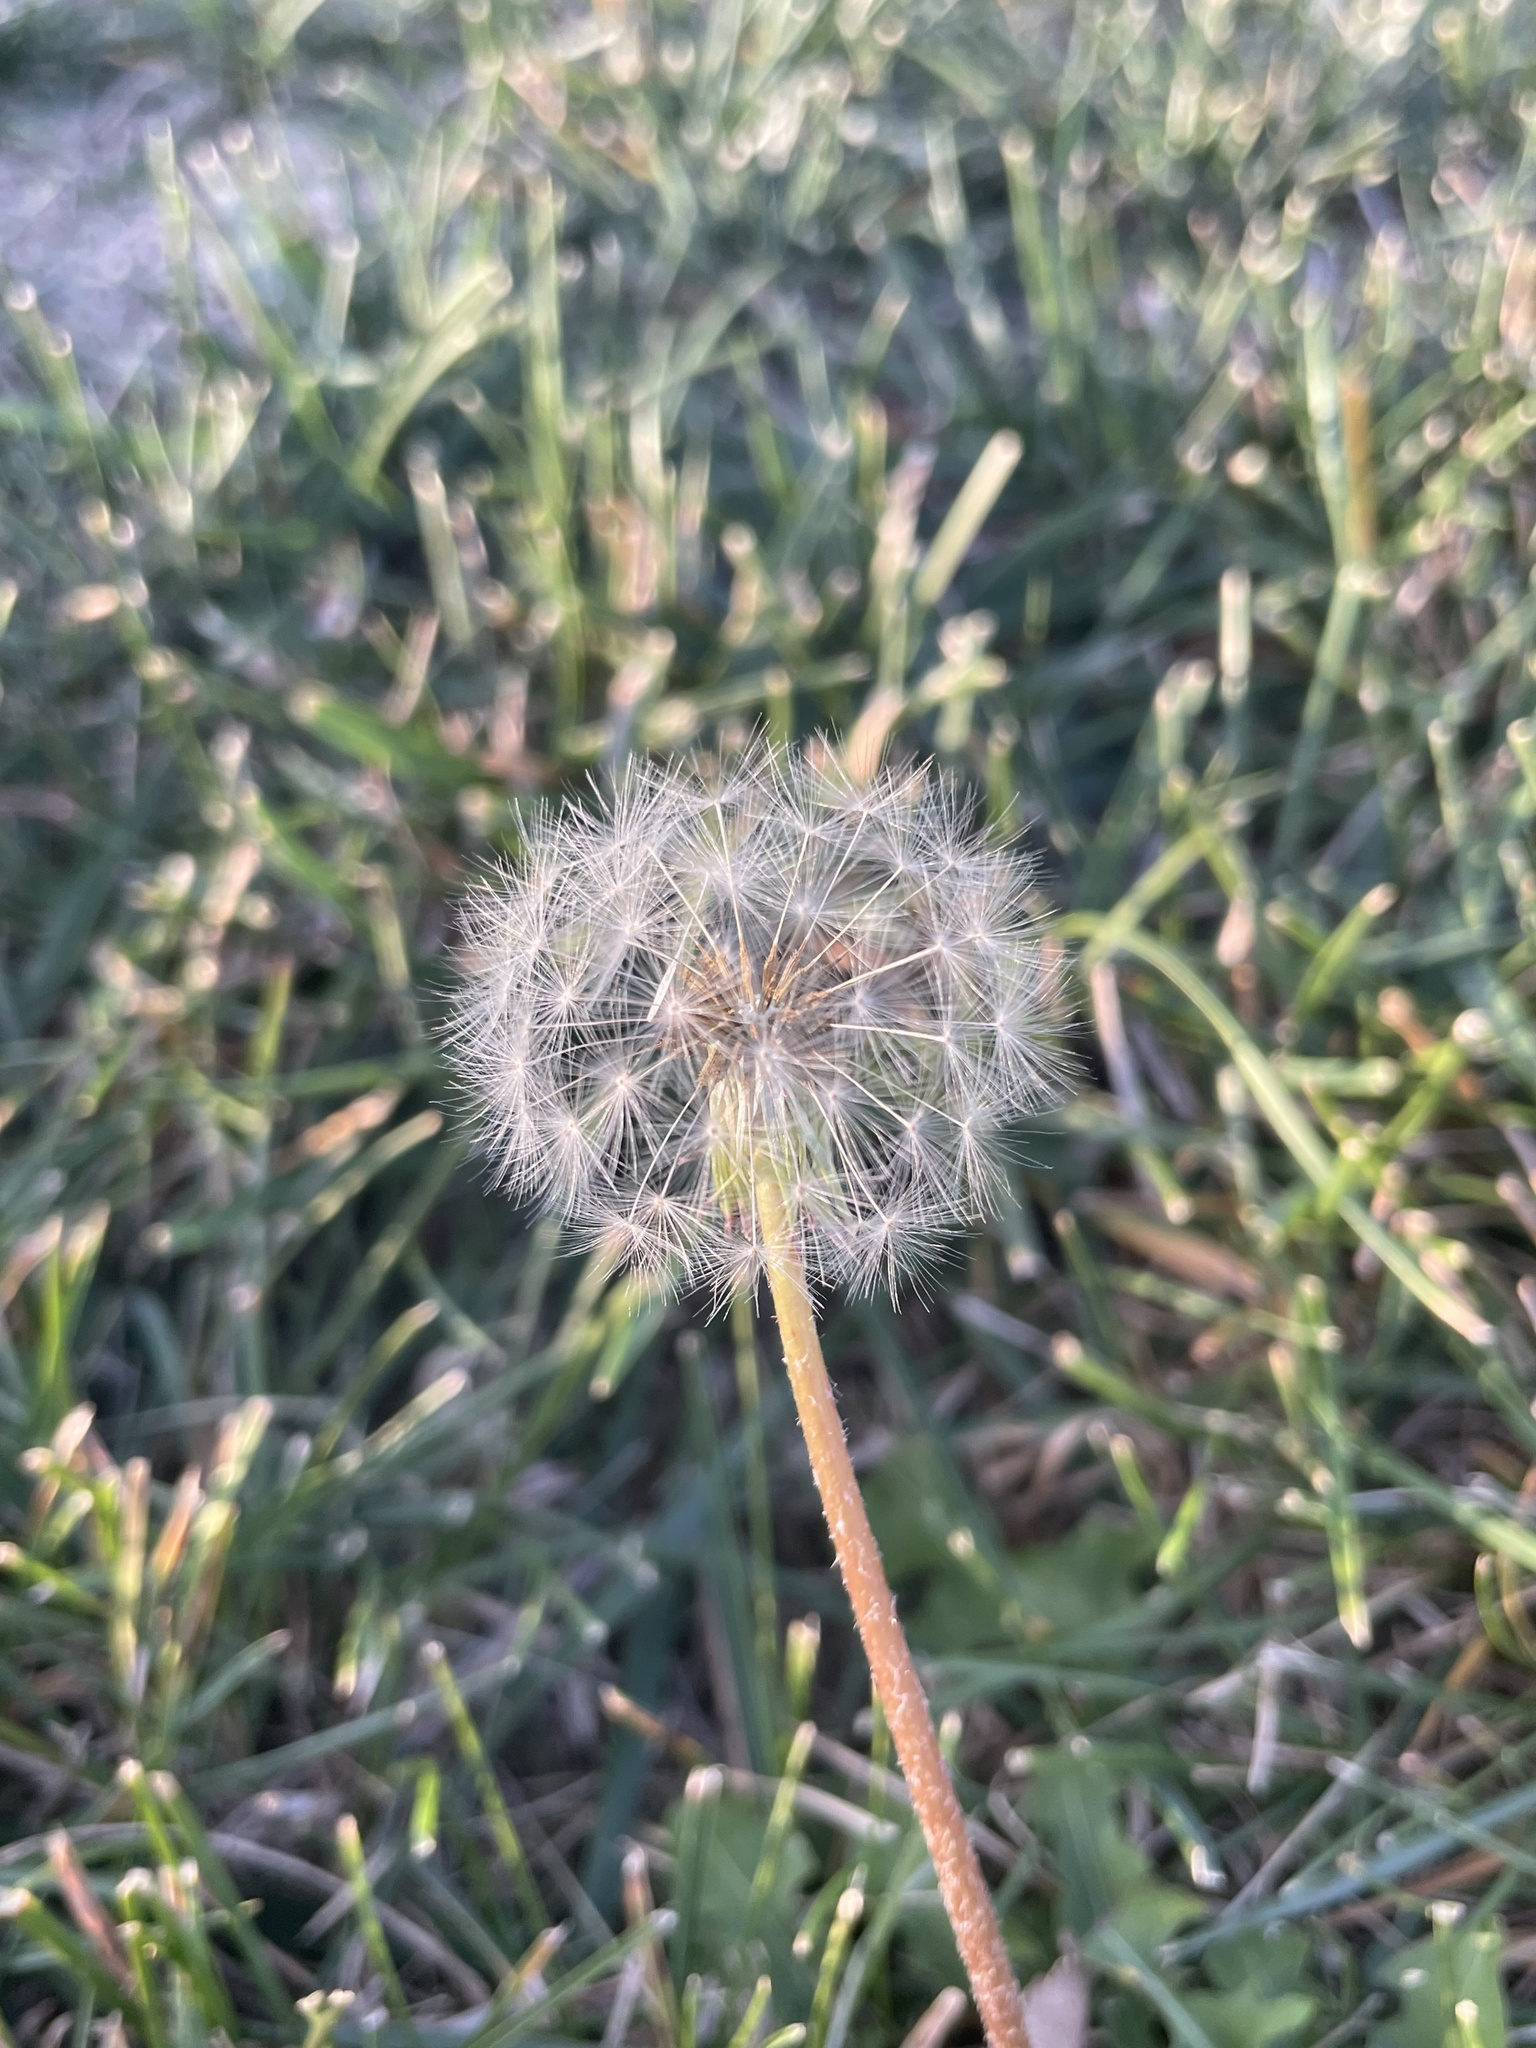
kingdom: Plantae
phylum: Tracheophyta
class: Magnoliopsida
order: Asterales
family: Asteraceae
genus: Taraxacum
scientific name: Taraxacum officinale
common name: Common dandelion
